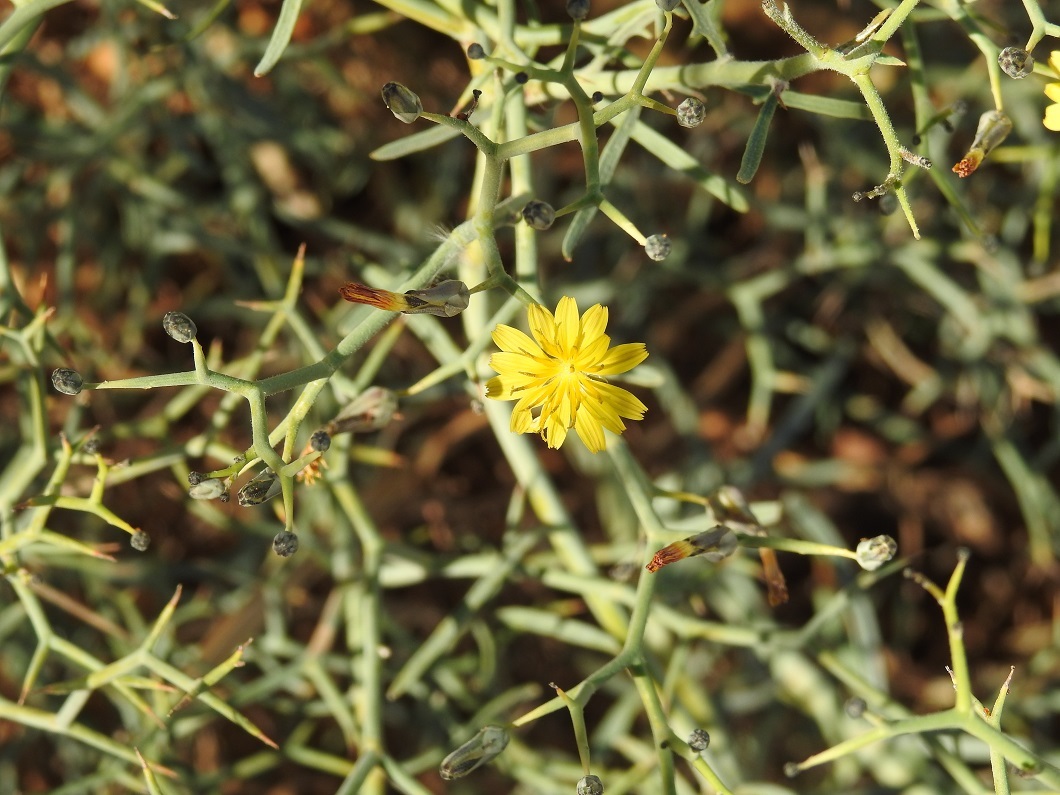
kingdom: Plantae
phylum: Tracheophyta
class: Magnoliopsida
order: Asterales
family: Asteraceae
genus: Launaea
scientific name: Launaea arborescens
